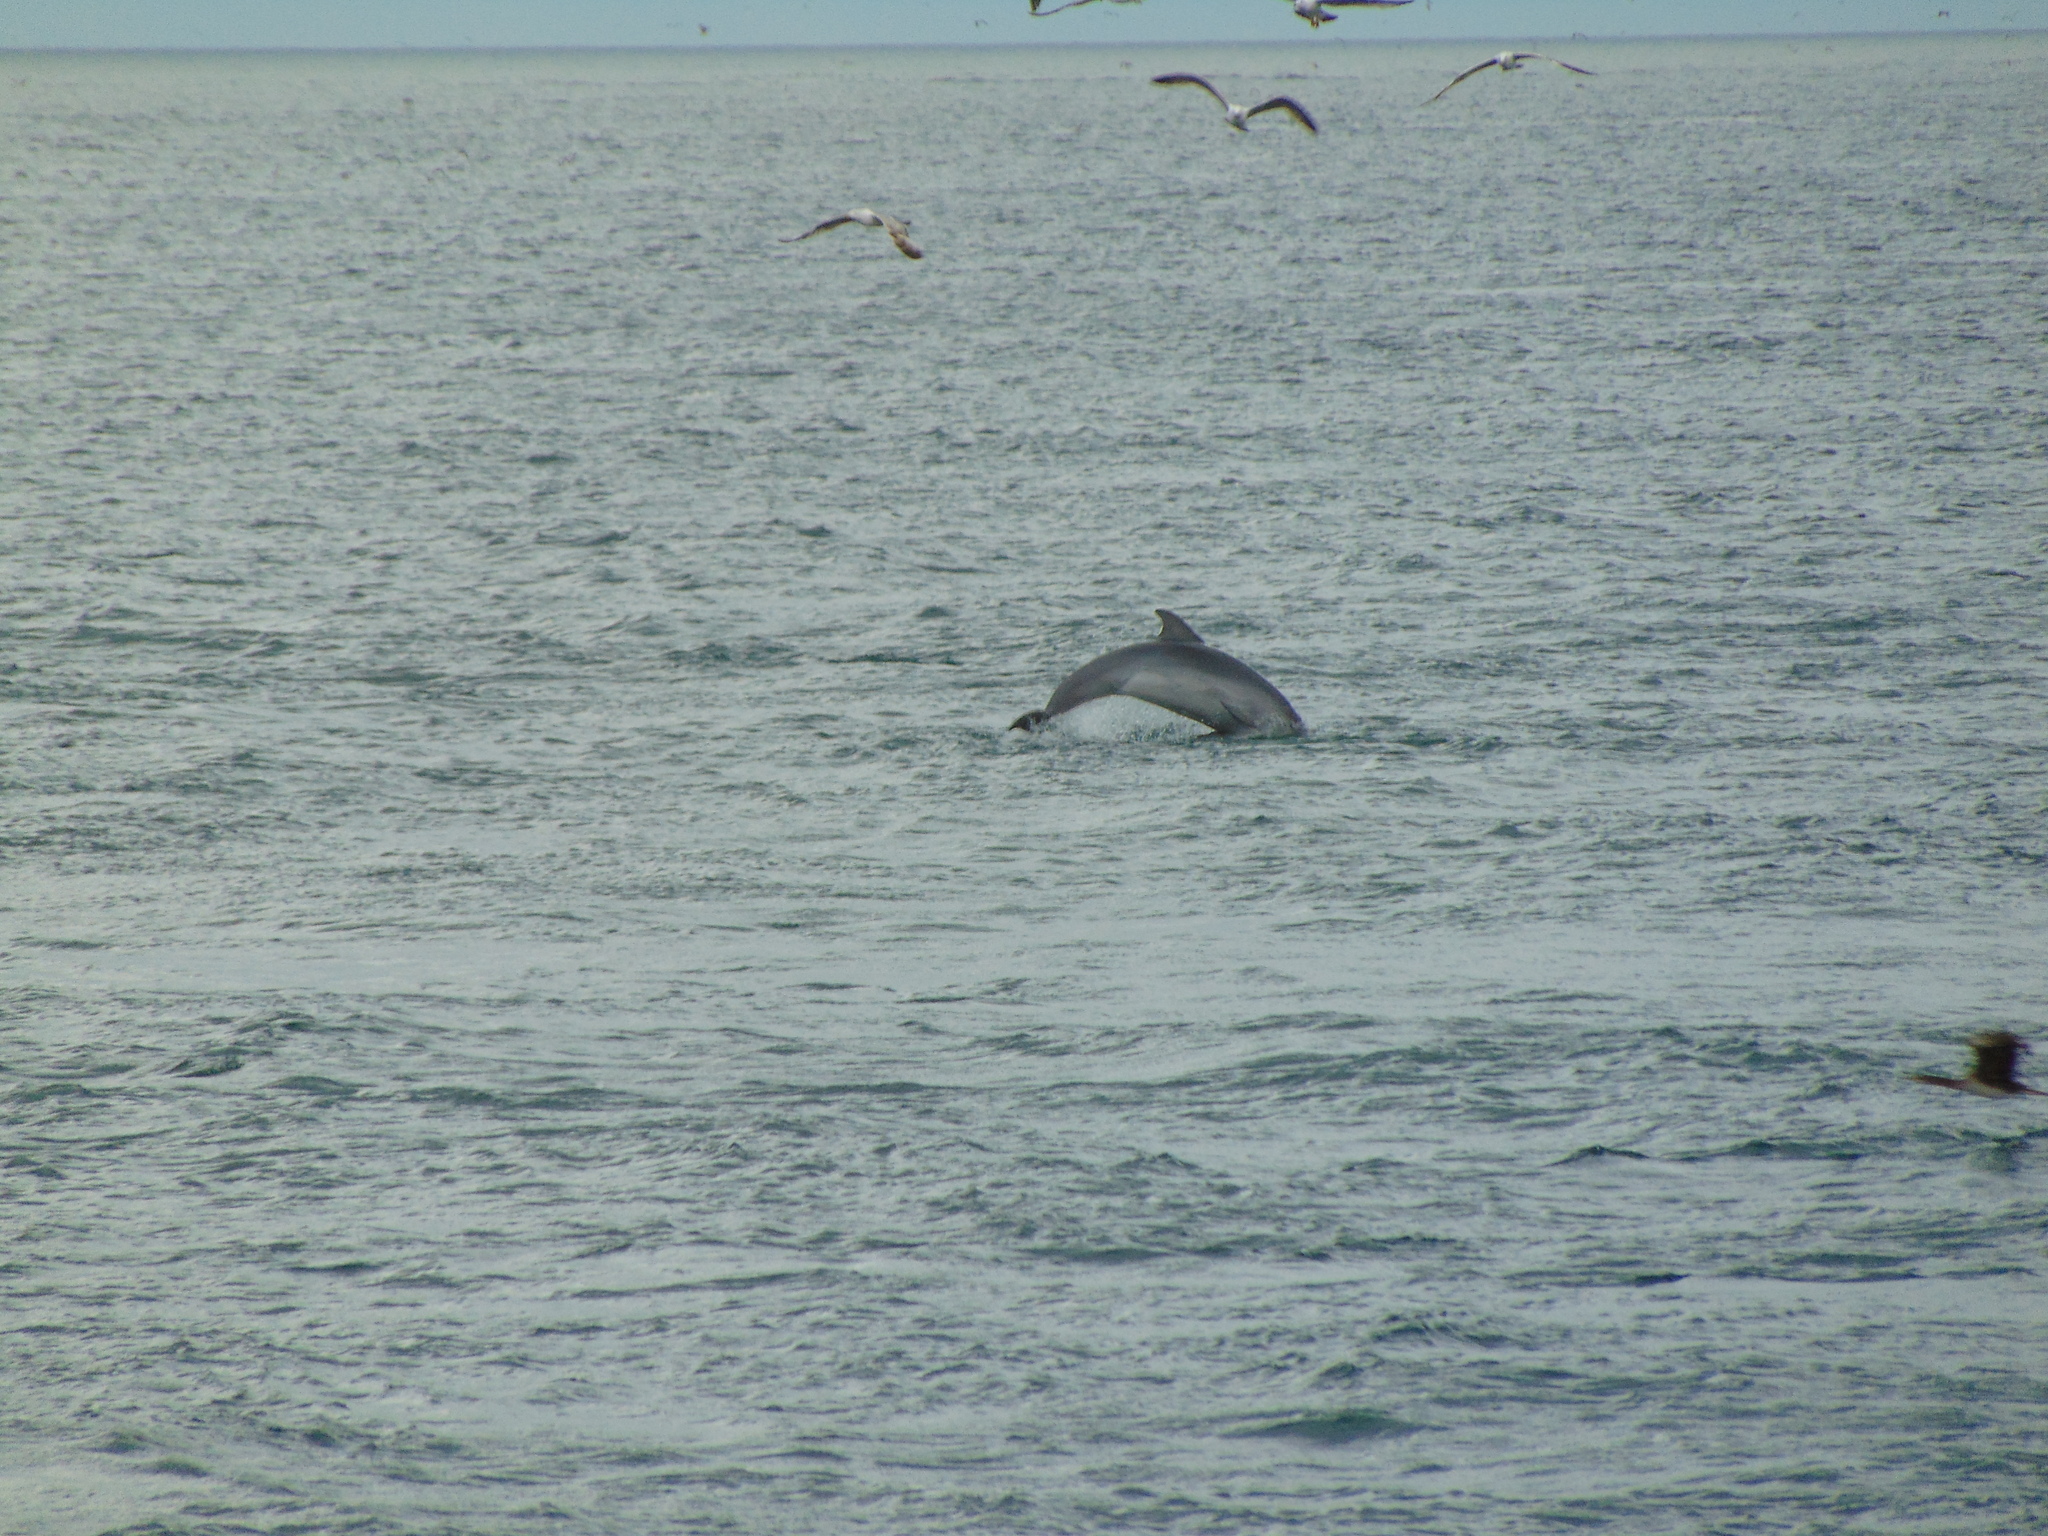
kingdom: Animalia
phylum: Chordata
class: Mammalia
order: Cetacea
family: Delphinidae
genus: Tursiops
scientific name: Tursiops truncatus
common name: Bottlenose dolphin
